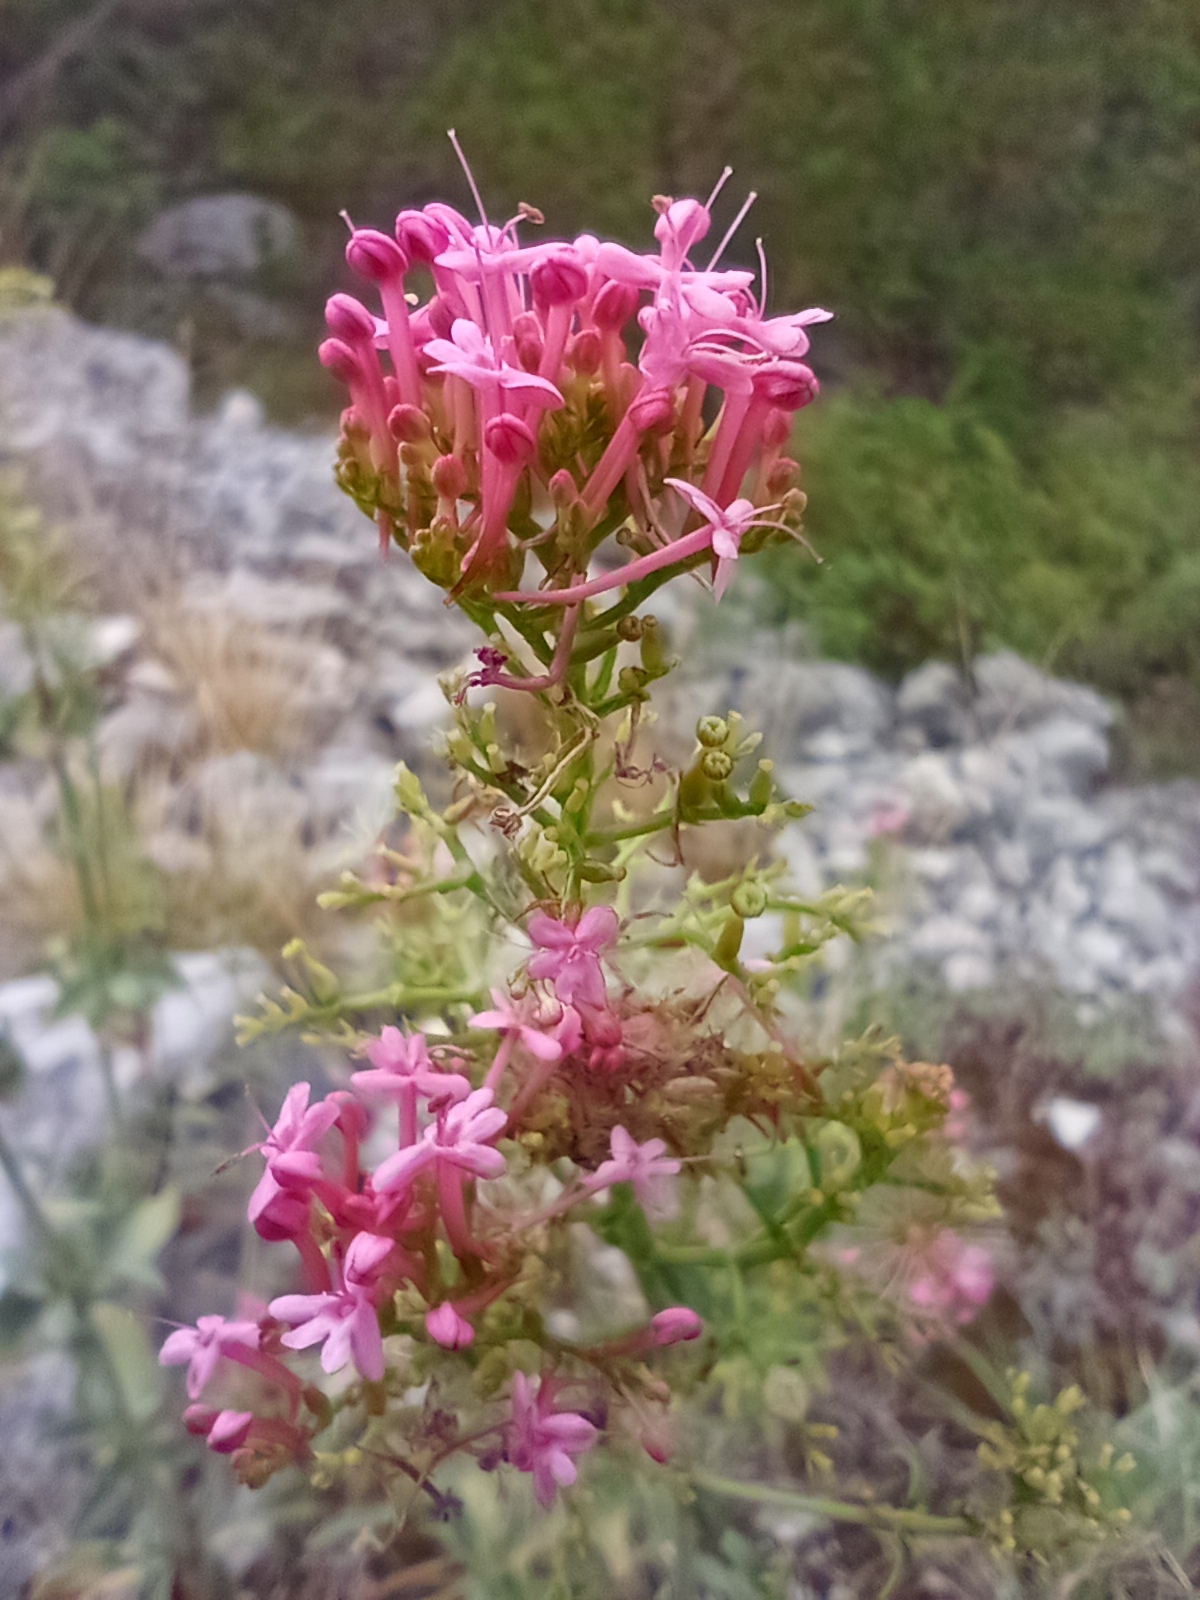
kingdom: Plantae
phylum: Tracheophyta
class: Magnoliopsida
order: Dipsacales
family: Caprifoliaceae
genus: Centranthus
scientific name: Centranthus ruber
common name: Red valerian
